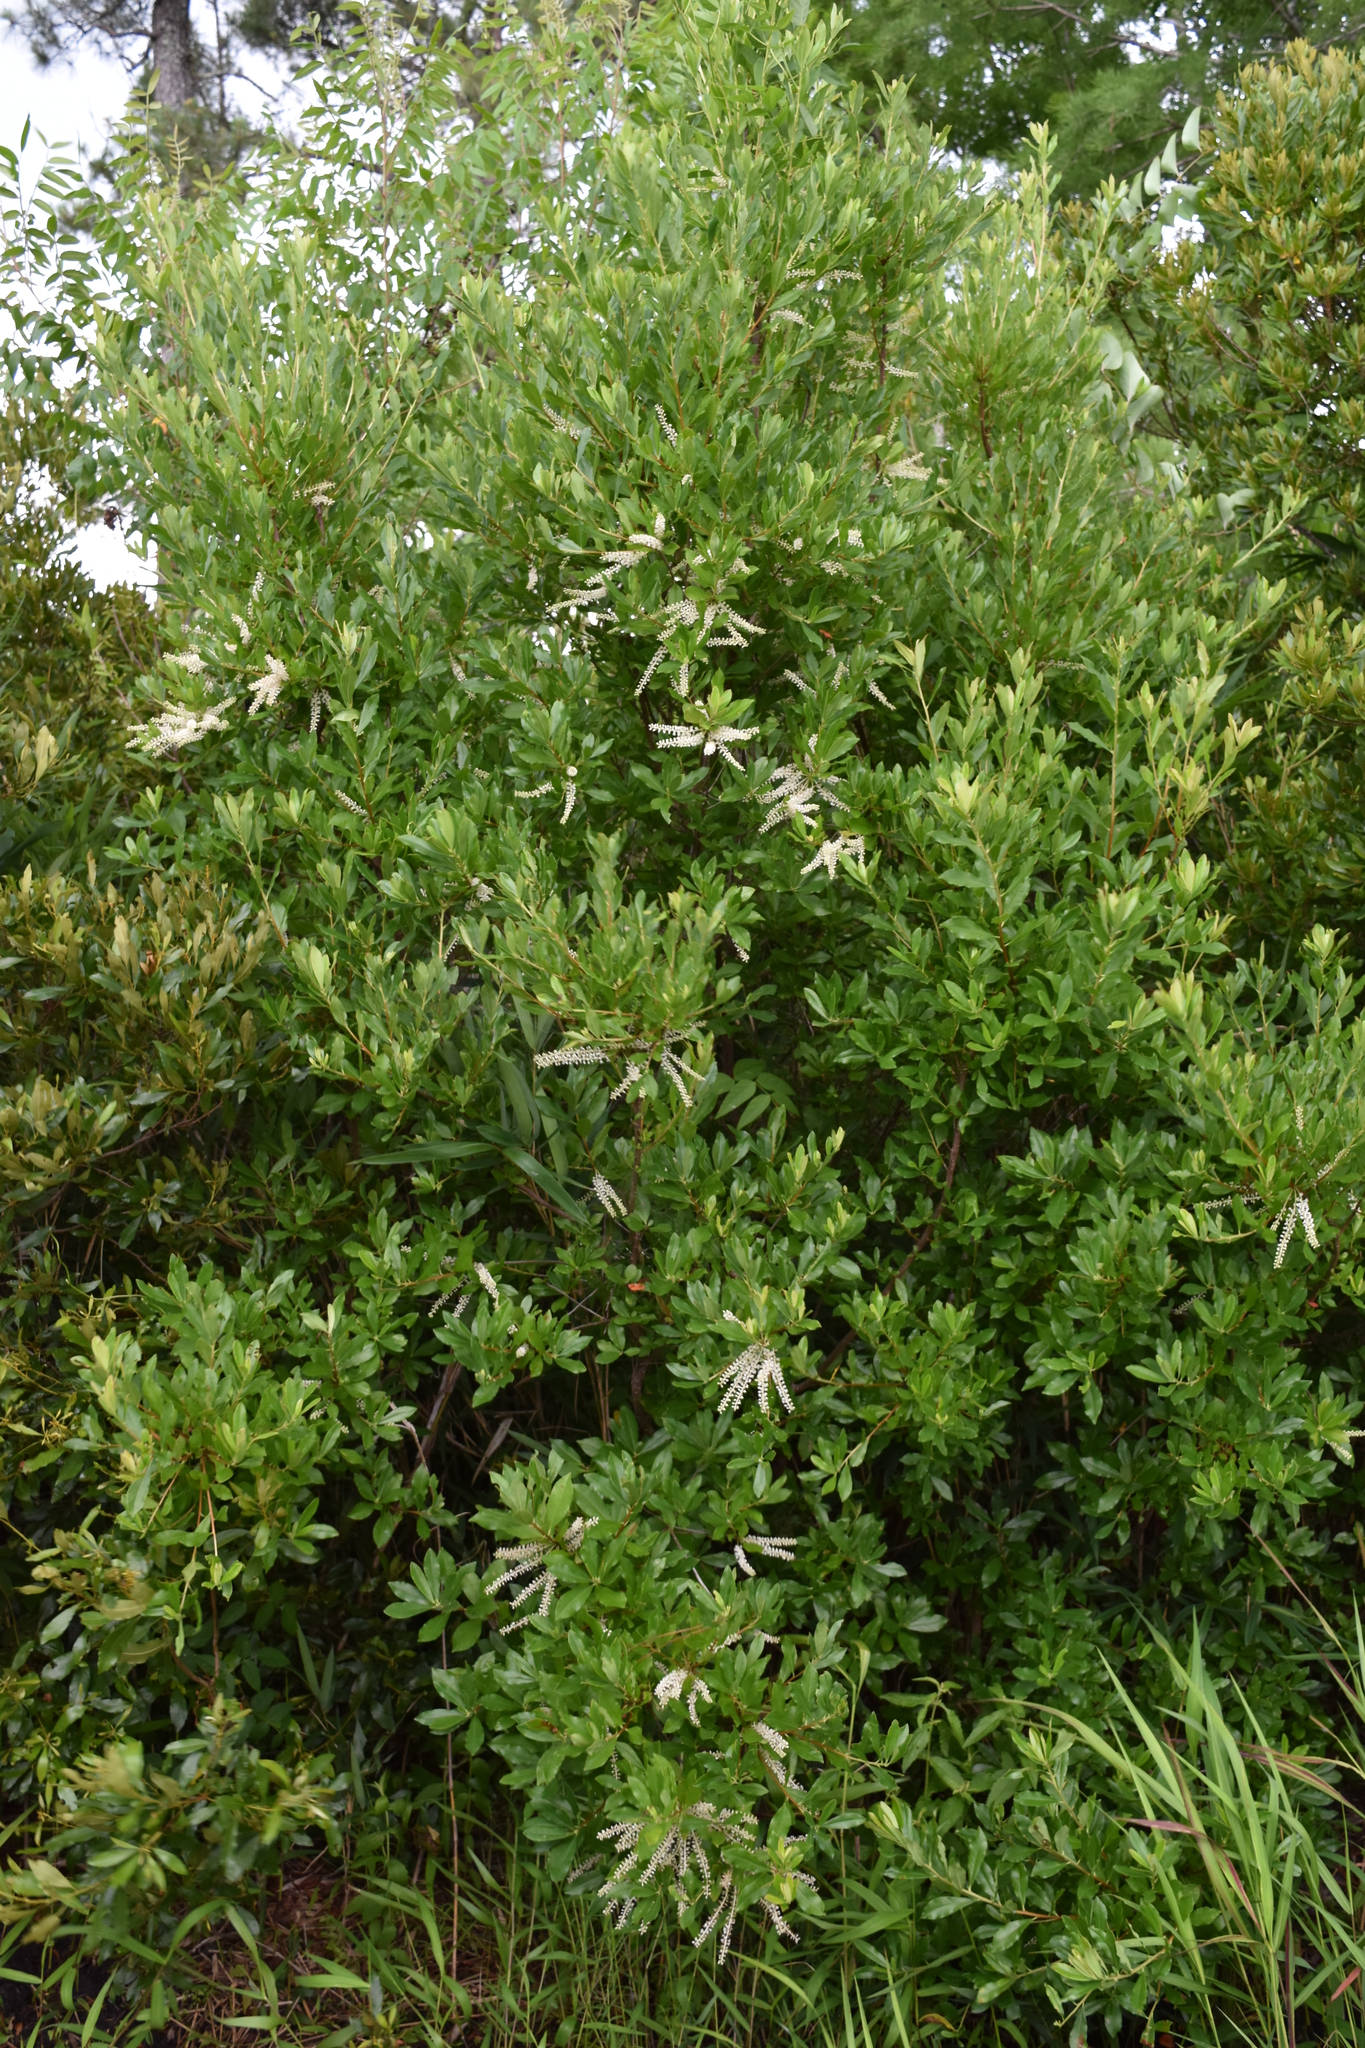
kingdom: Plantae
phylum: Tracheophyta
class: Magnoliopsida
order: Ericales
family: Cyrillaceae
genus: Cyrilla
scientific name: Cyrilla racemiflora
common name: Black titi
